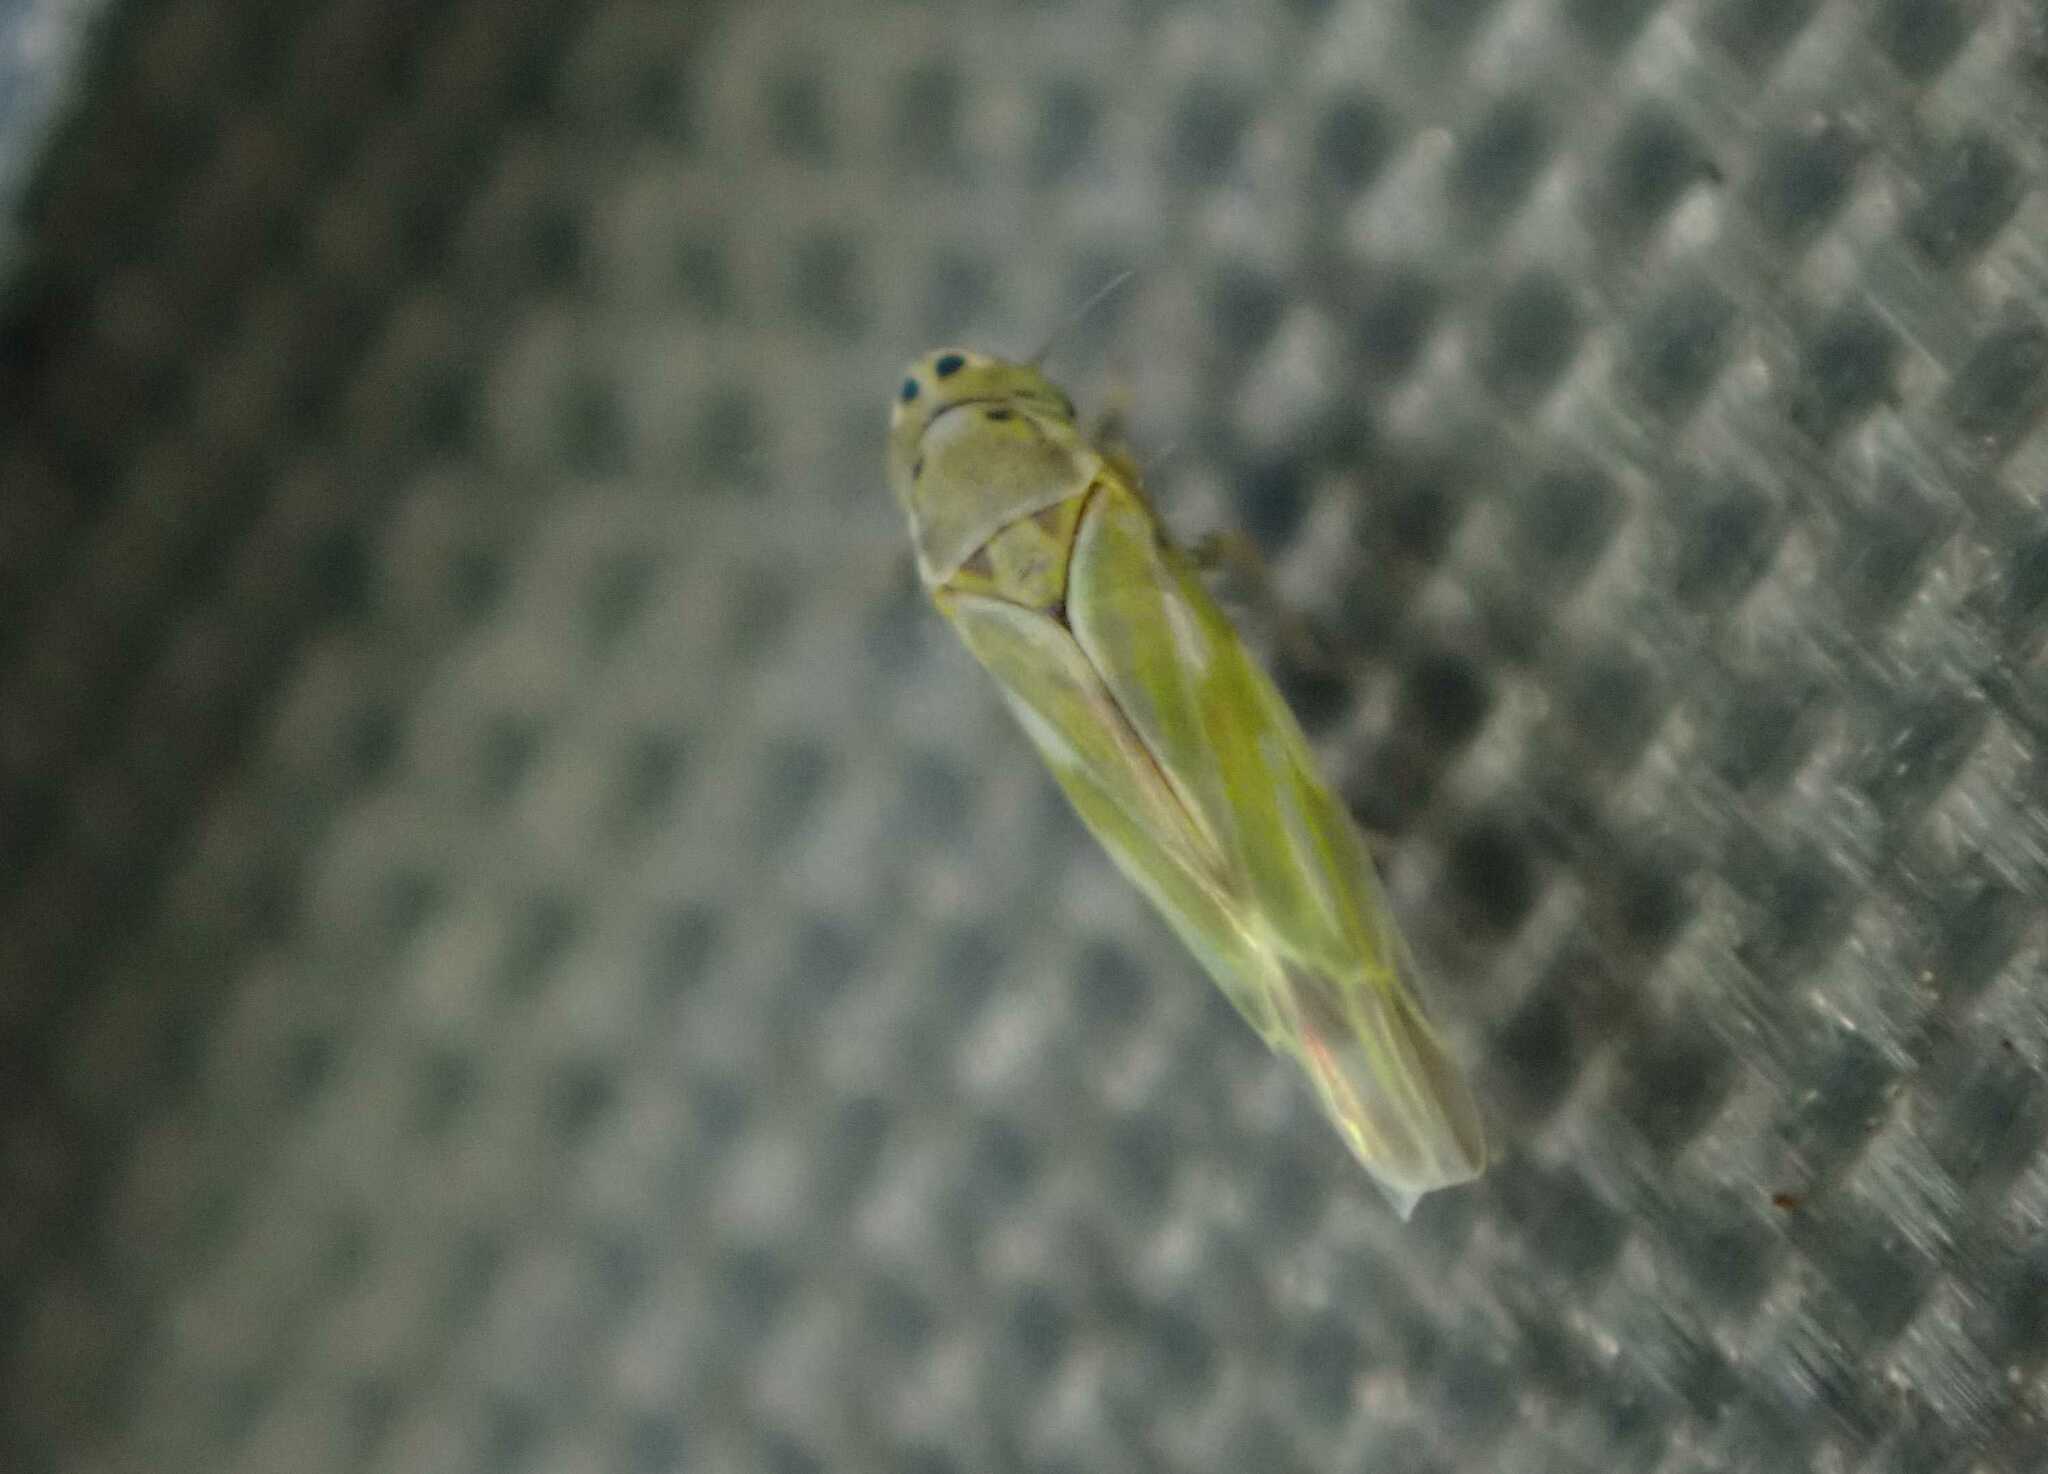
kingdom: Animalia
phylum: Arthropoda
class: Insecta
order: Hemiptera
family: Cicadellidae
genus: Frutioidia
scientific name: Frutioidia bisignata
